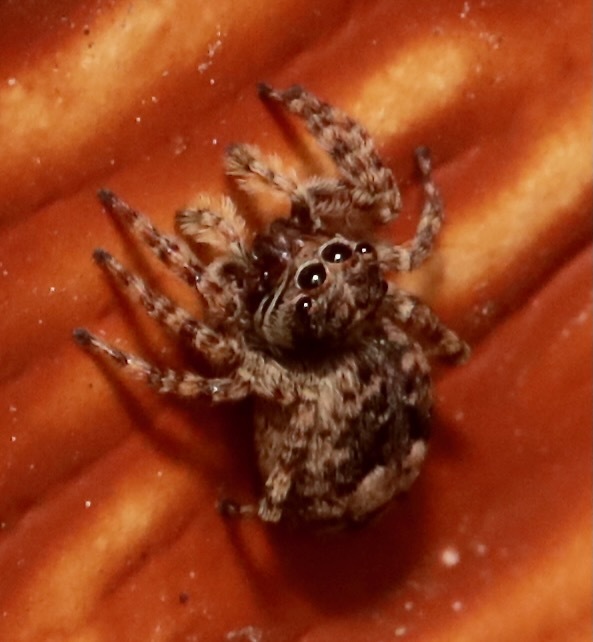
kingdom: Animalia
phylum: Arthropoda
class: Arachnida
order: Araneae
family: Salticidae
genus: Attulus
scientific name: Attulus fasciger
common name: Asiatic wall jumping spider
